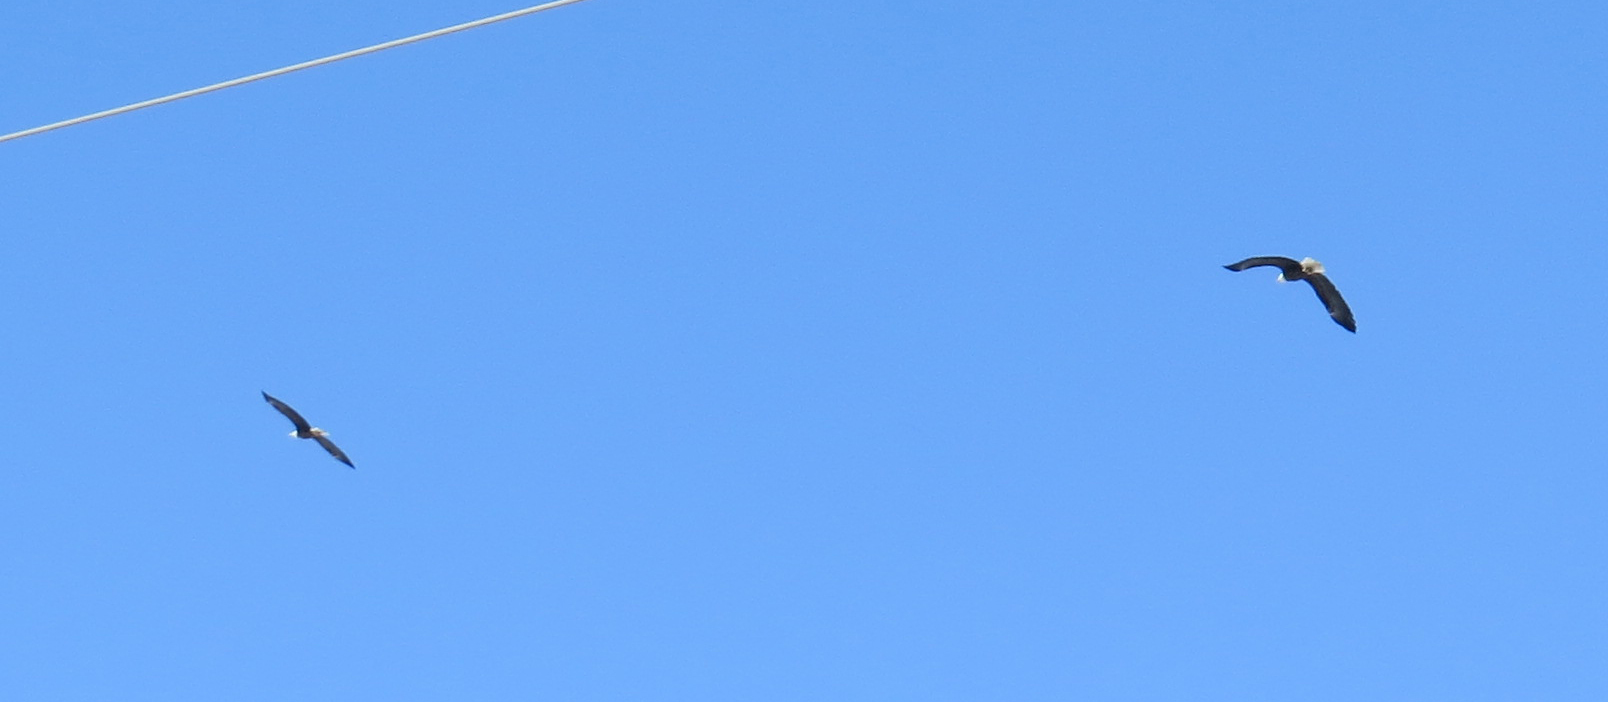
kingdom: Animalia
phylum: Chordata
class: Aves
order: Accipitriformes
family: Accipitridae
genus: Haliaeetus
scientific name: Haliaeetus leucocephalus
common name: Bald eagle
